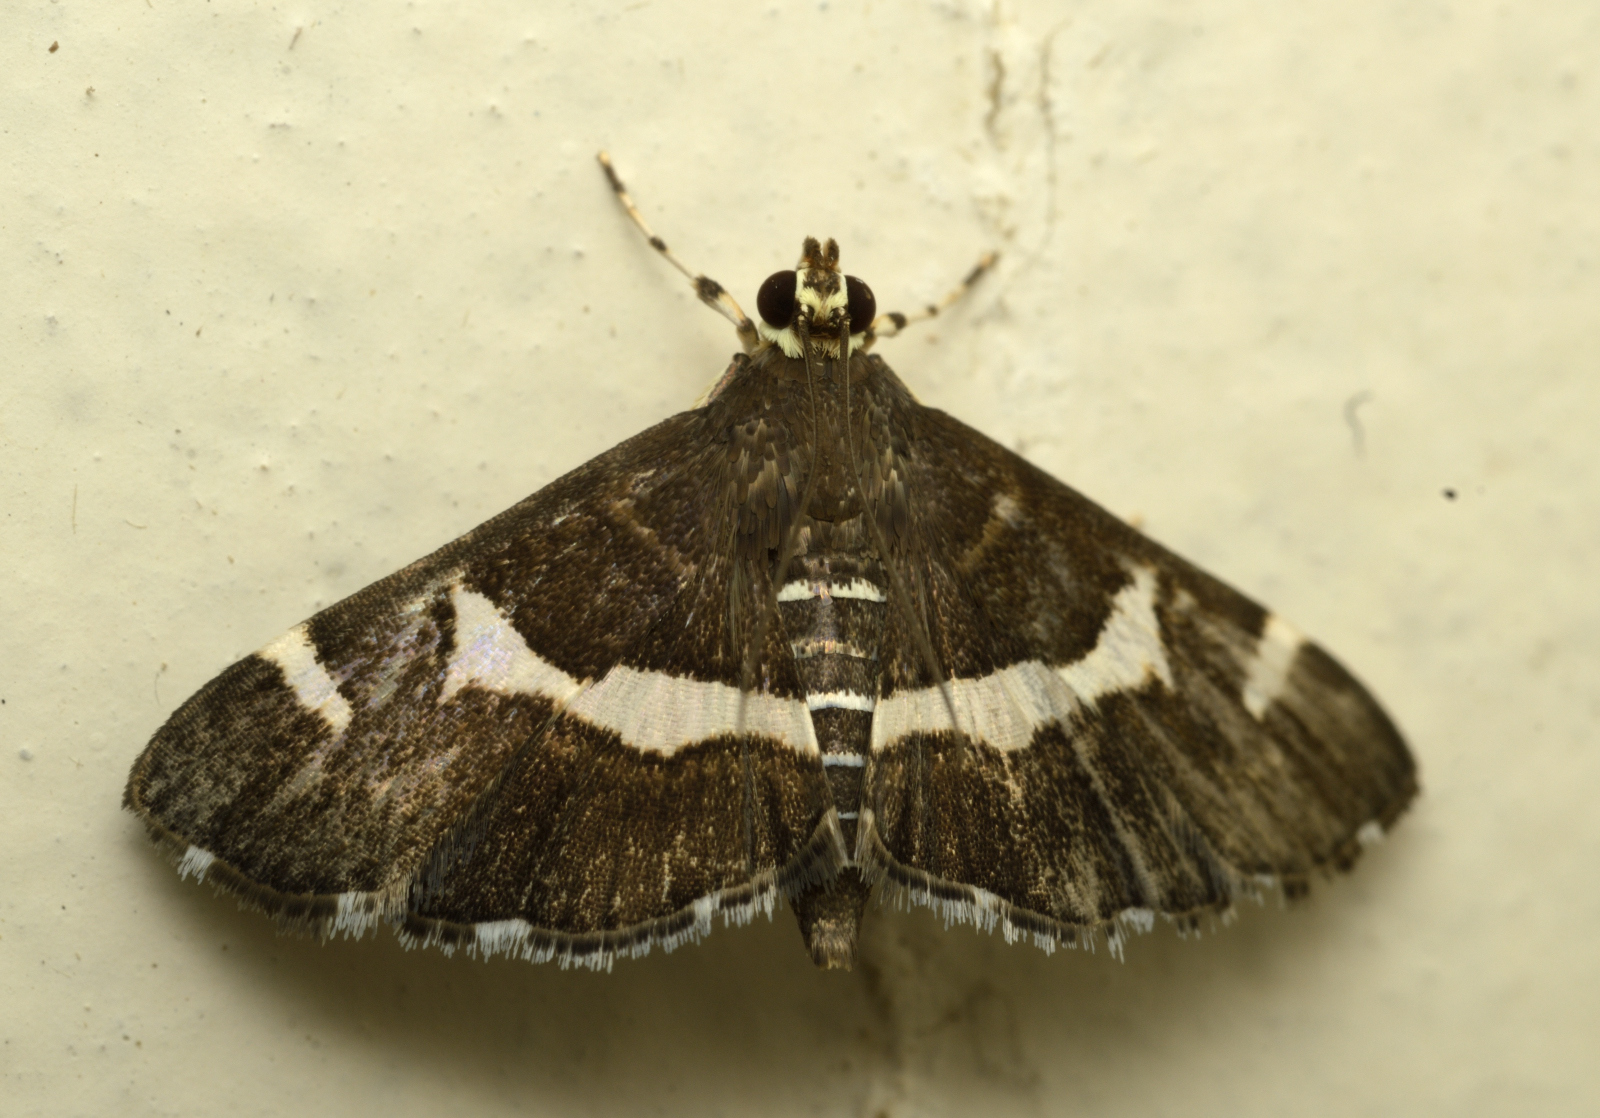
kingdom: Animalia
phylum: Arthropoda
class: Insecta
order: Lepidoptera
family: Crambidae
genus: Spoladea
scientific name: Spoladea recurvalis
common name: Beet webworm moth
